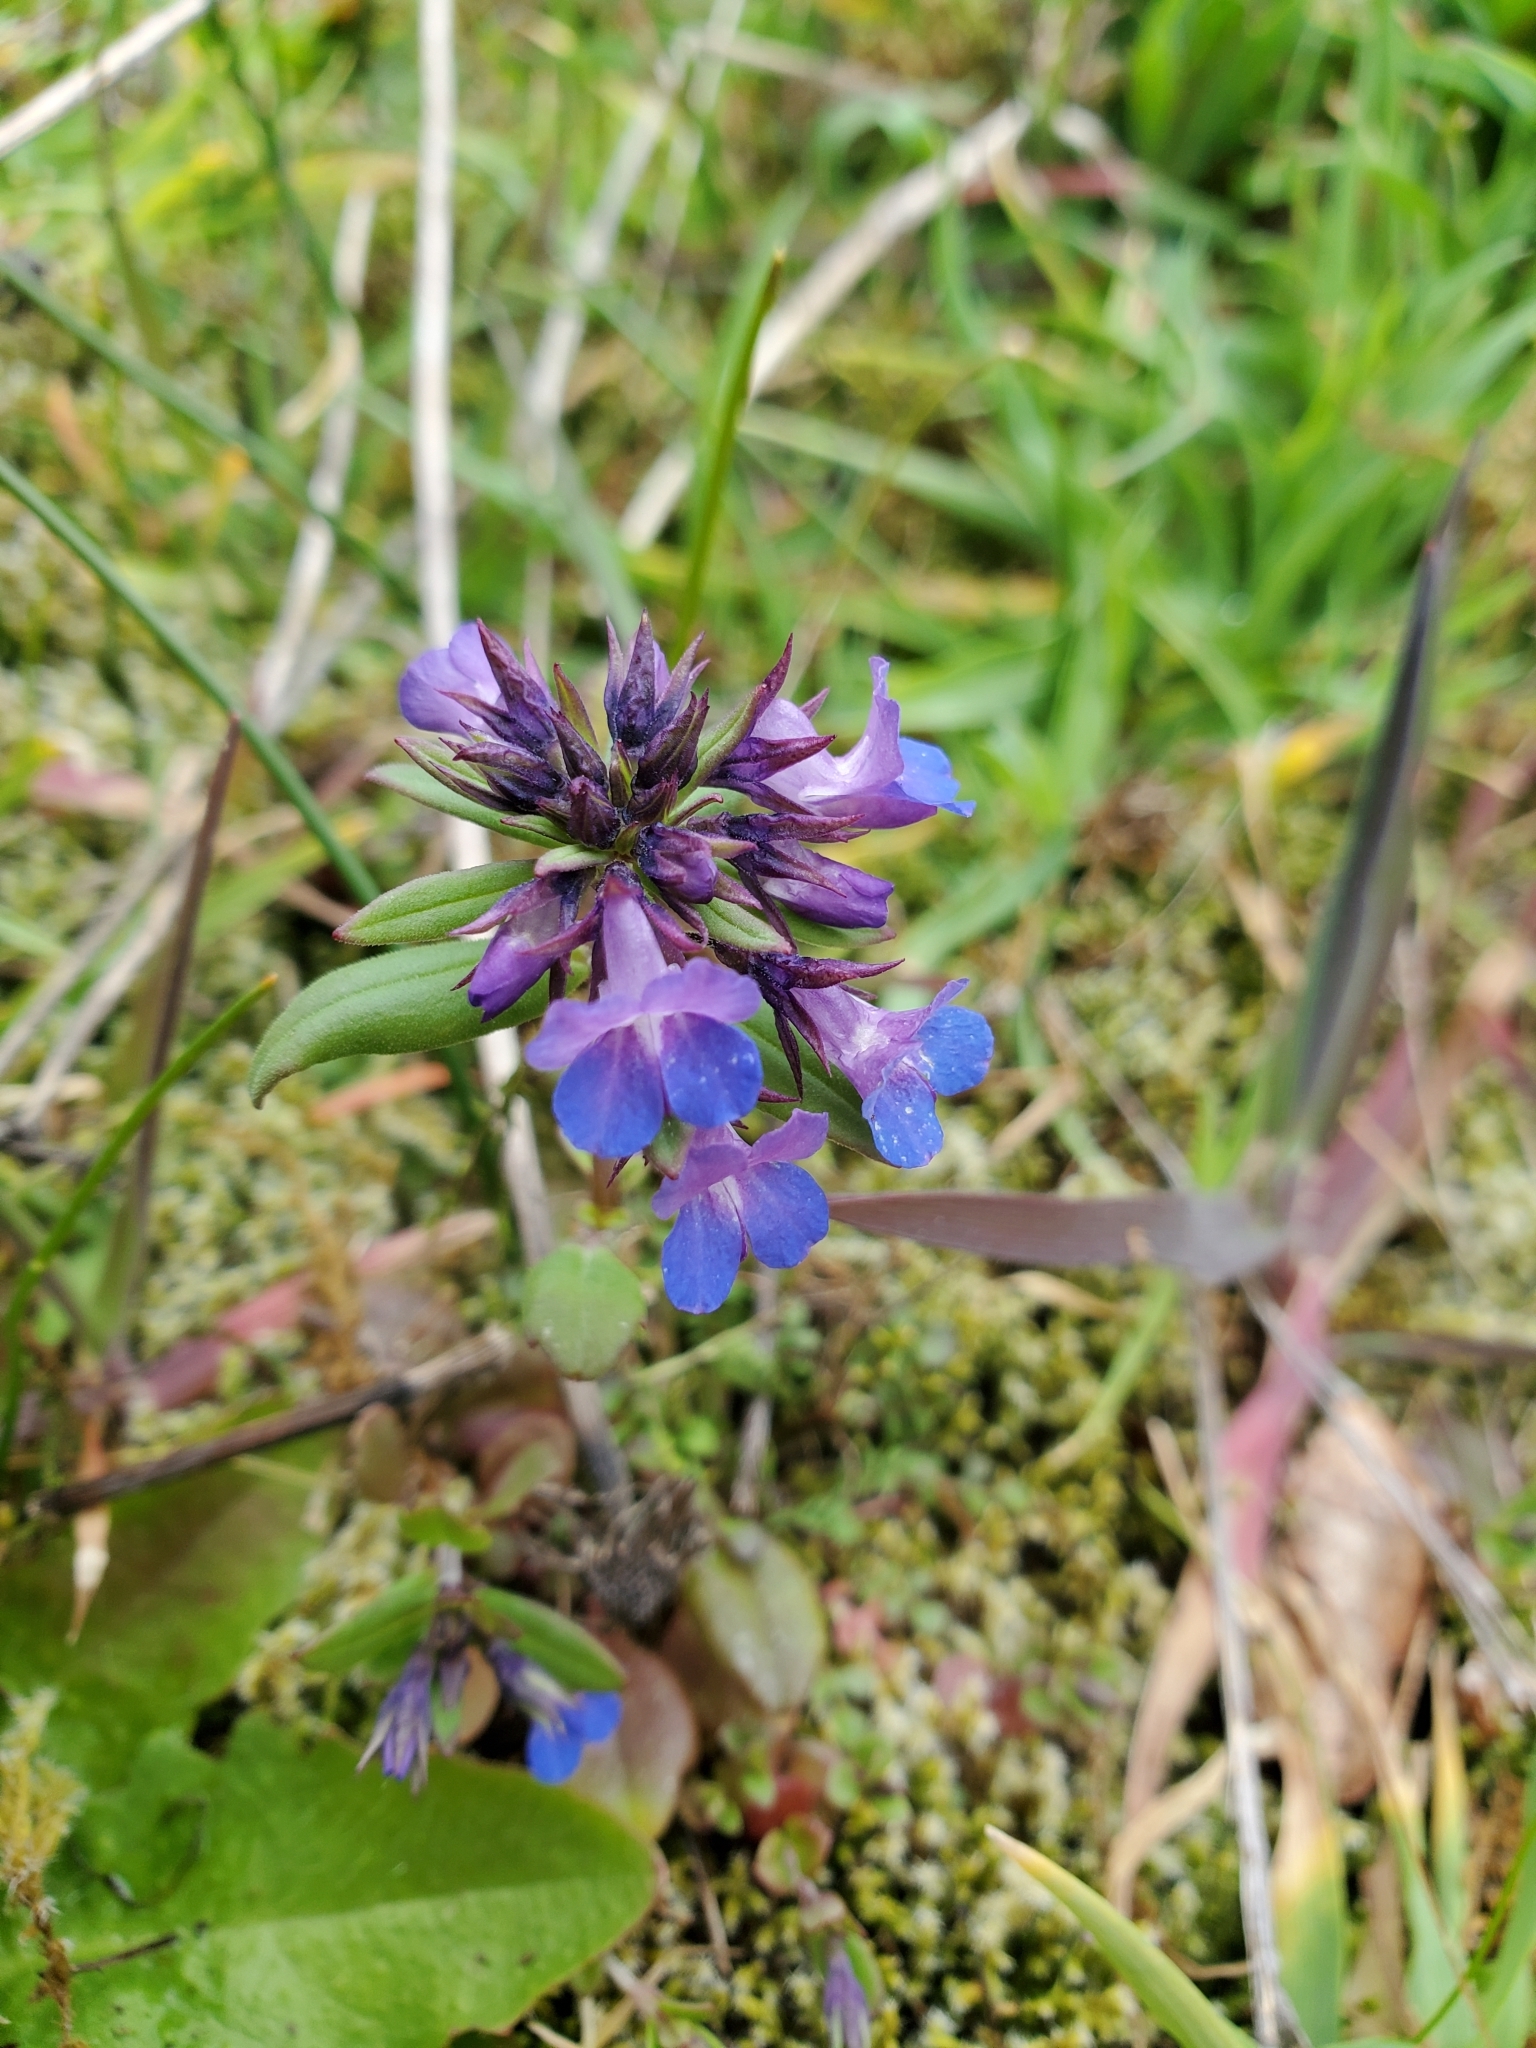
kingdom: Plantae
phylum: Tracheophyta
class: Magnoliopsida
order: Lamiales
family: Plantaginaceae
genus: Collinsia
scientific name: Collinsia grandiflora
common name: Large-flower blue-eyed-mary
